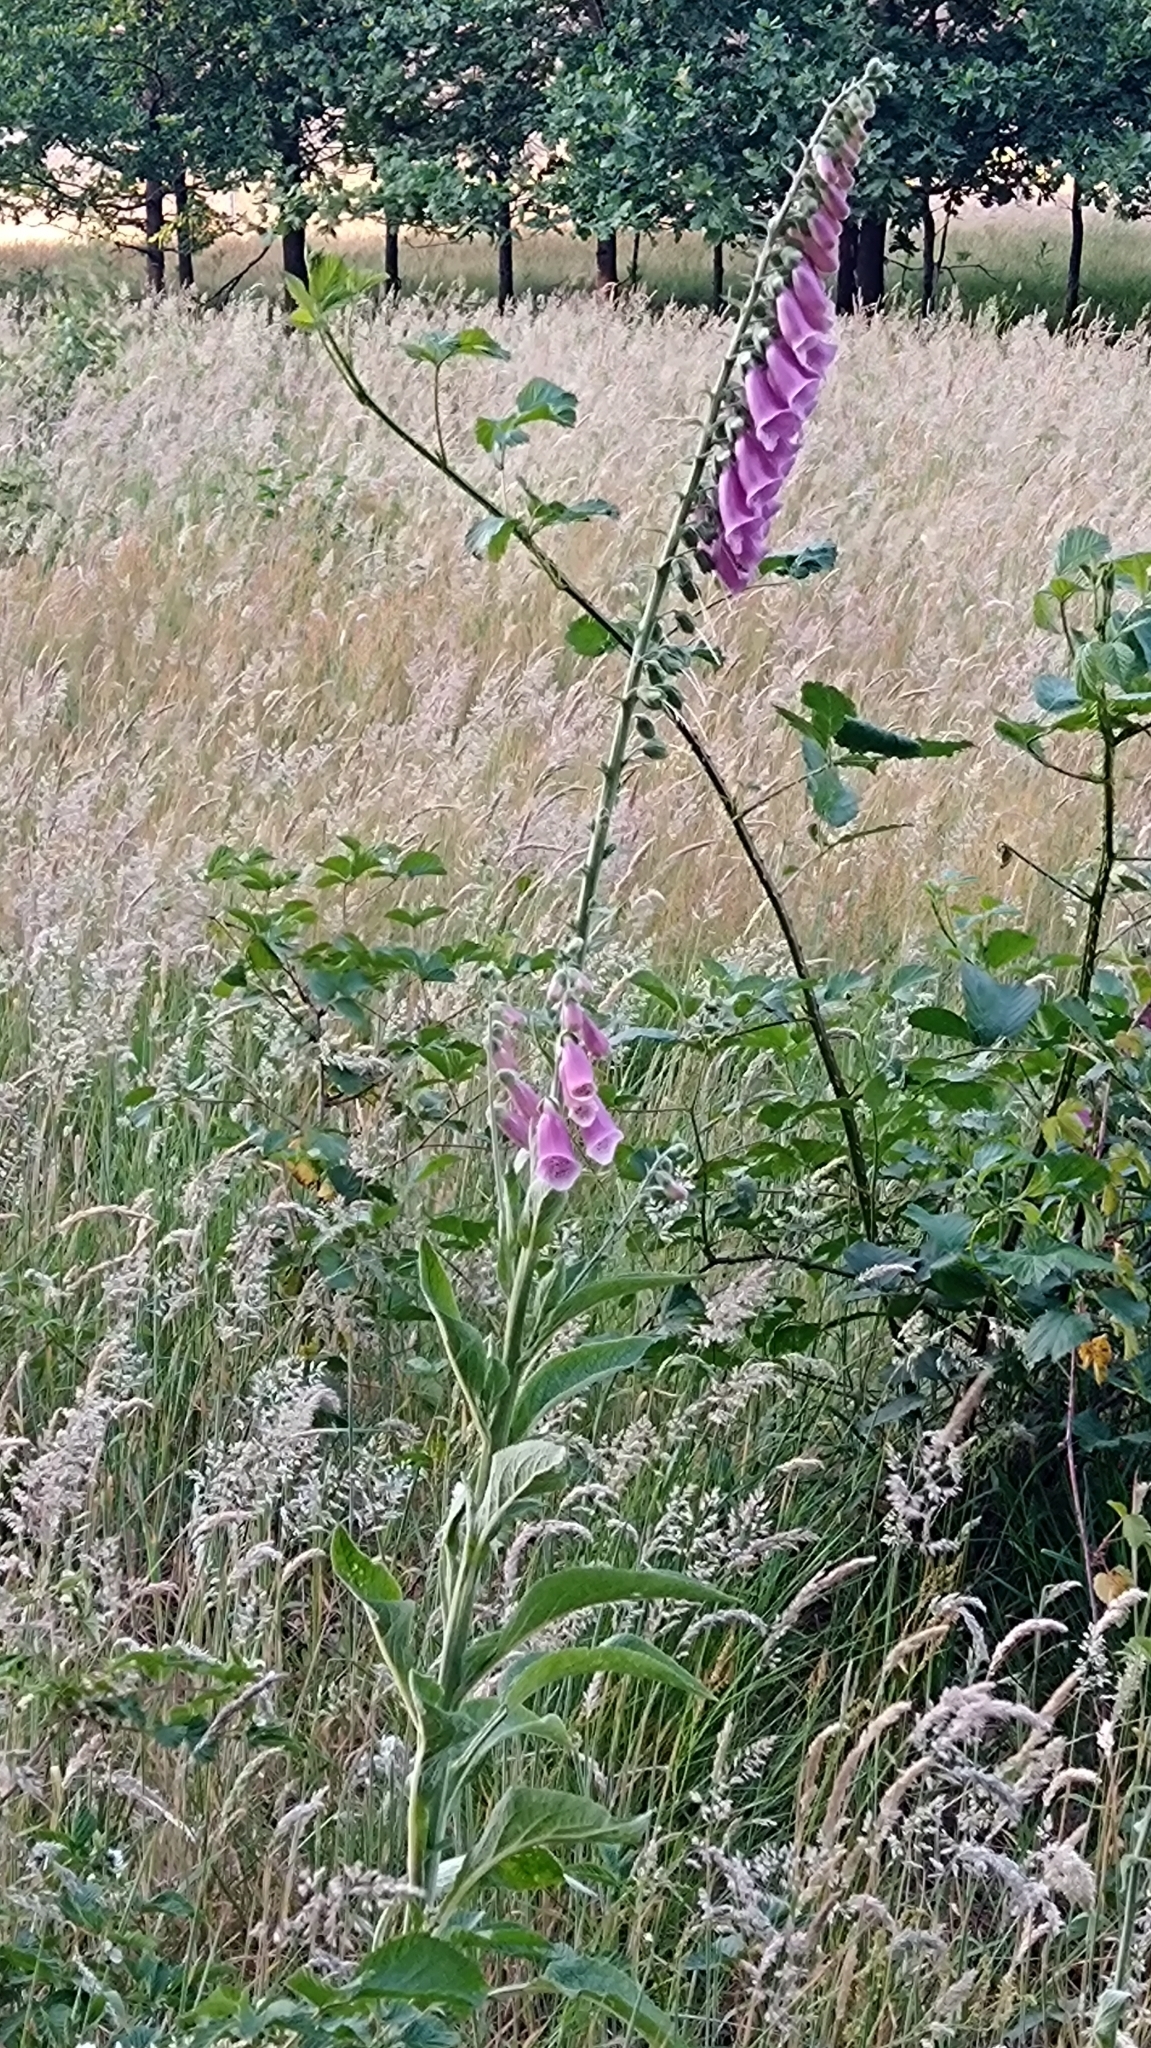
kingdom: Plantae
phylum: Tracheophyta
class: Magnoliopsida
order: Lamiales
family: Plantaginaceae
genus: Digitalis
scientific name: Digitalis purpurea
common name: Foxglove
